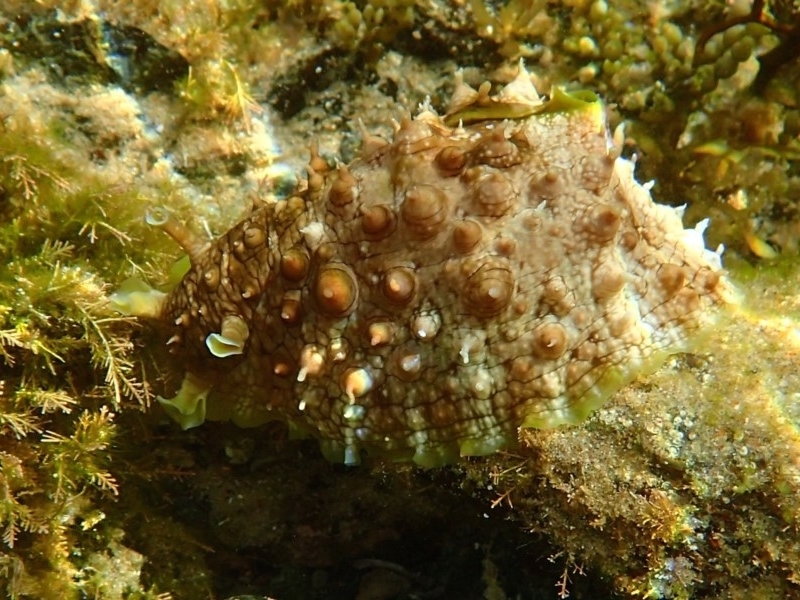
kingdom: Animalia
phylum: Mollusca
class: Gastropoda
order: Aplysiida
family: Aplysiidae
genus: Dolabrifera
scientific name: Dolabrifera brazieri
